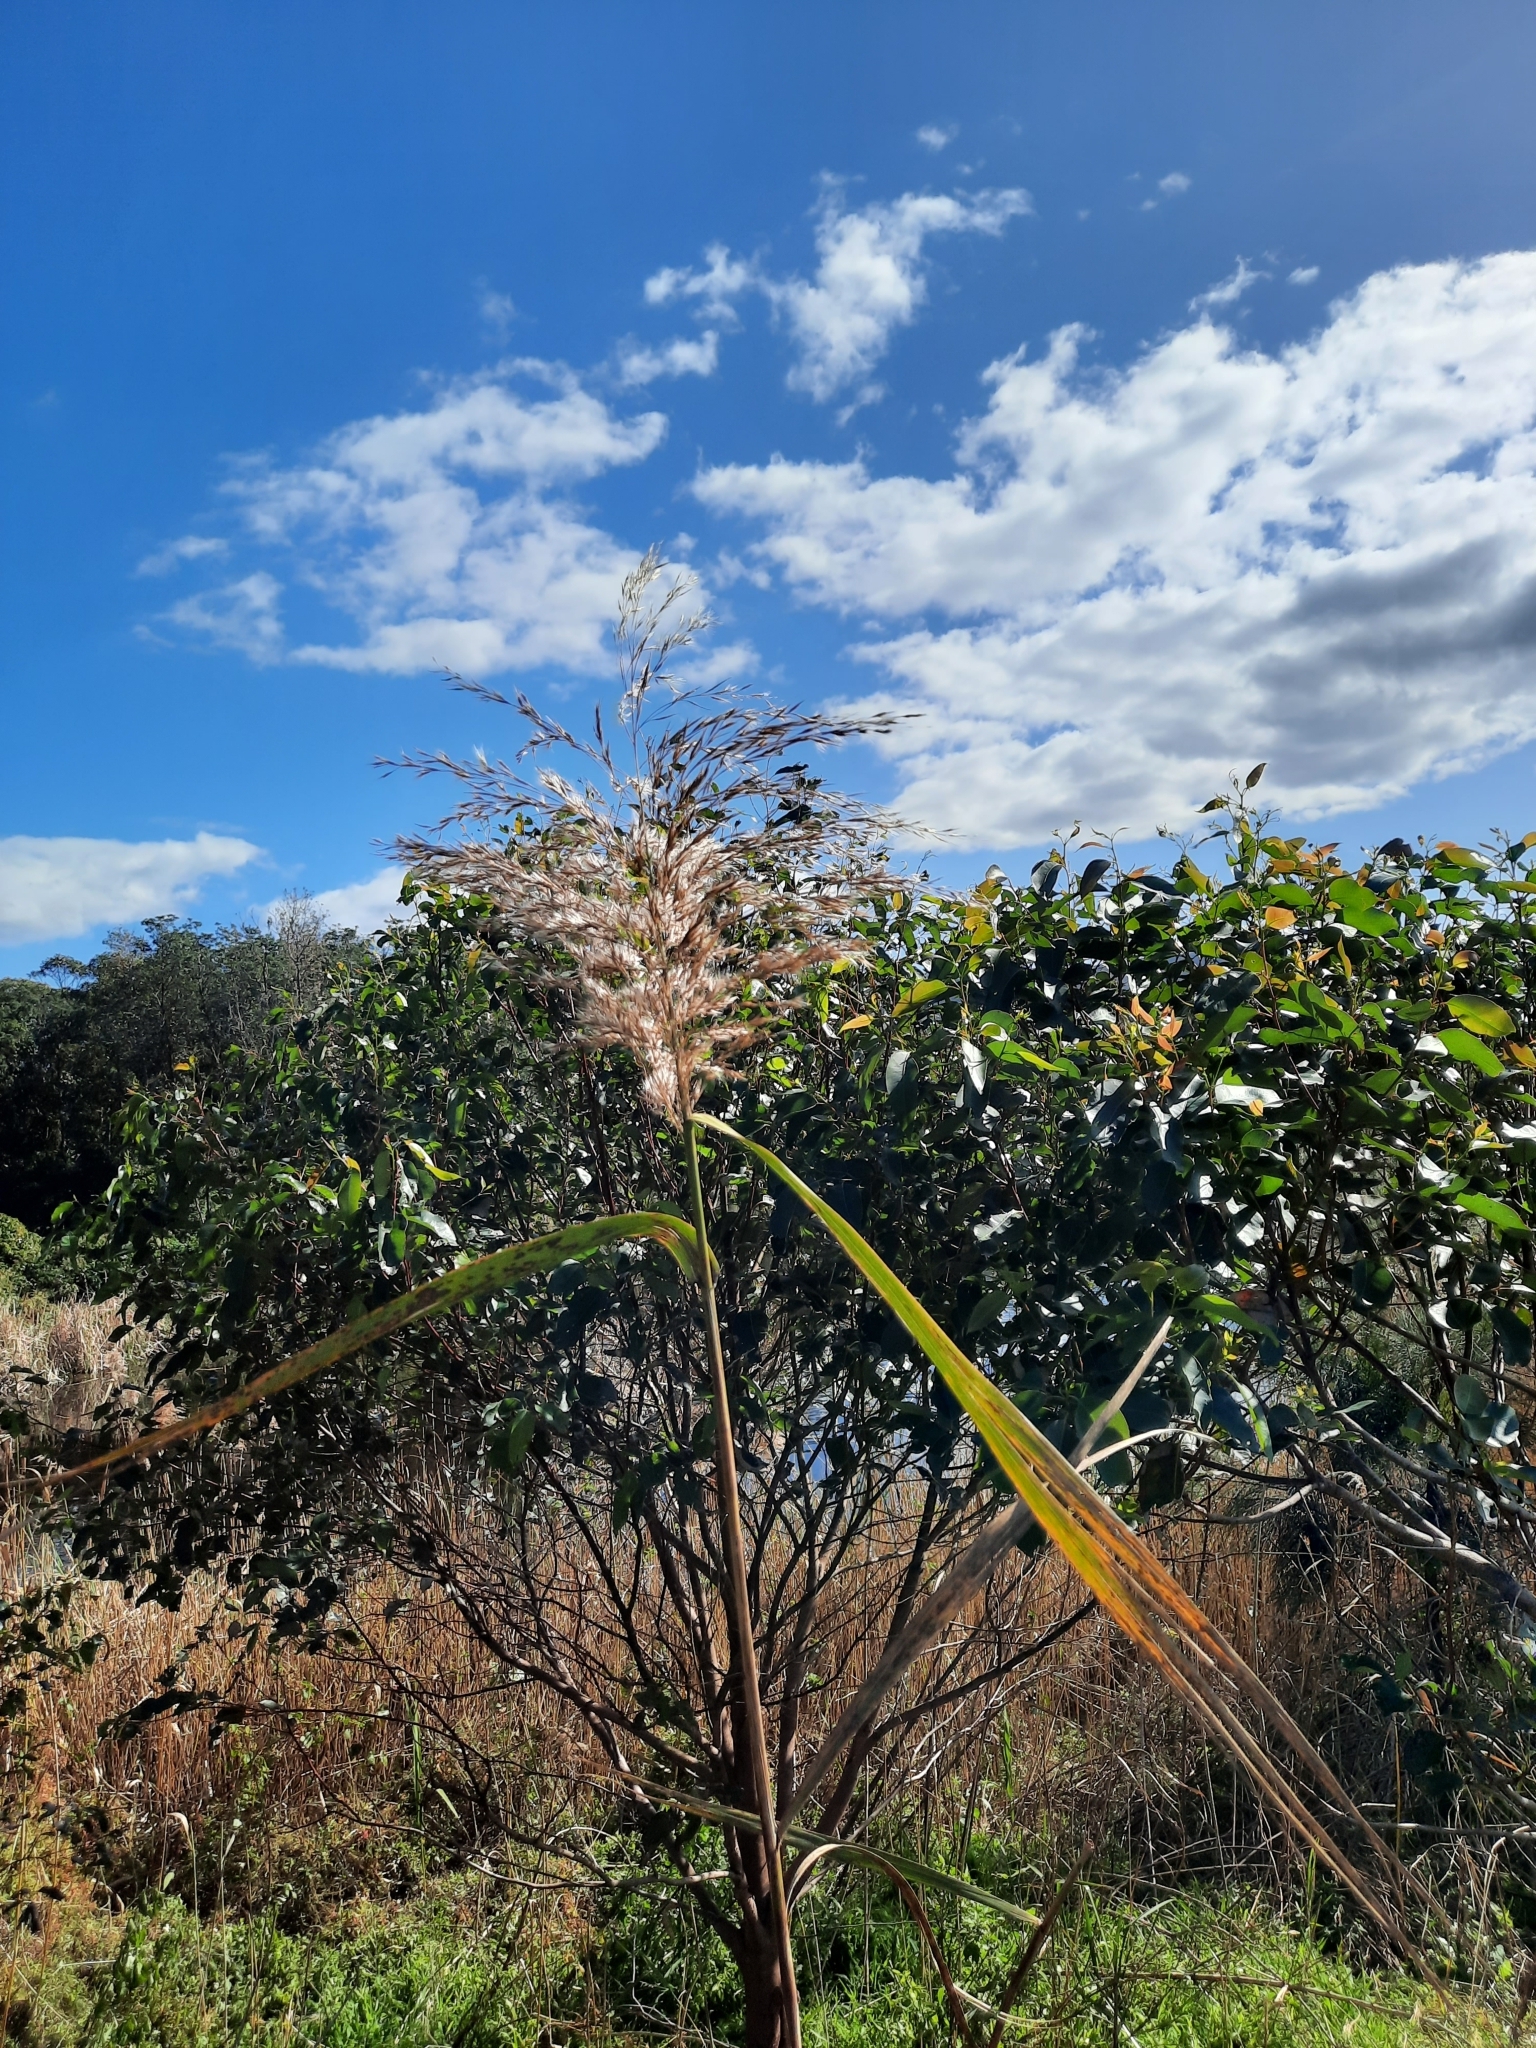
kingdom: Plantae
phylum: Tracheophyta
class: Liliopsida
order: Poales
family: Poaceae
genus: Phragmites
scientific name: Phragmites australis
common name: Common reed
